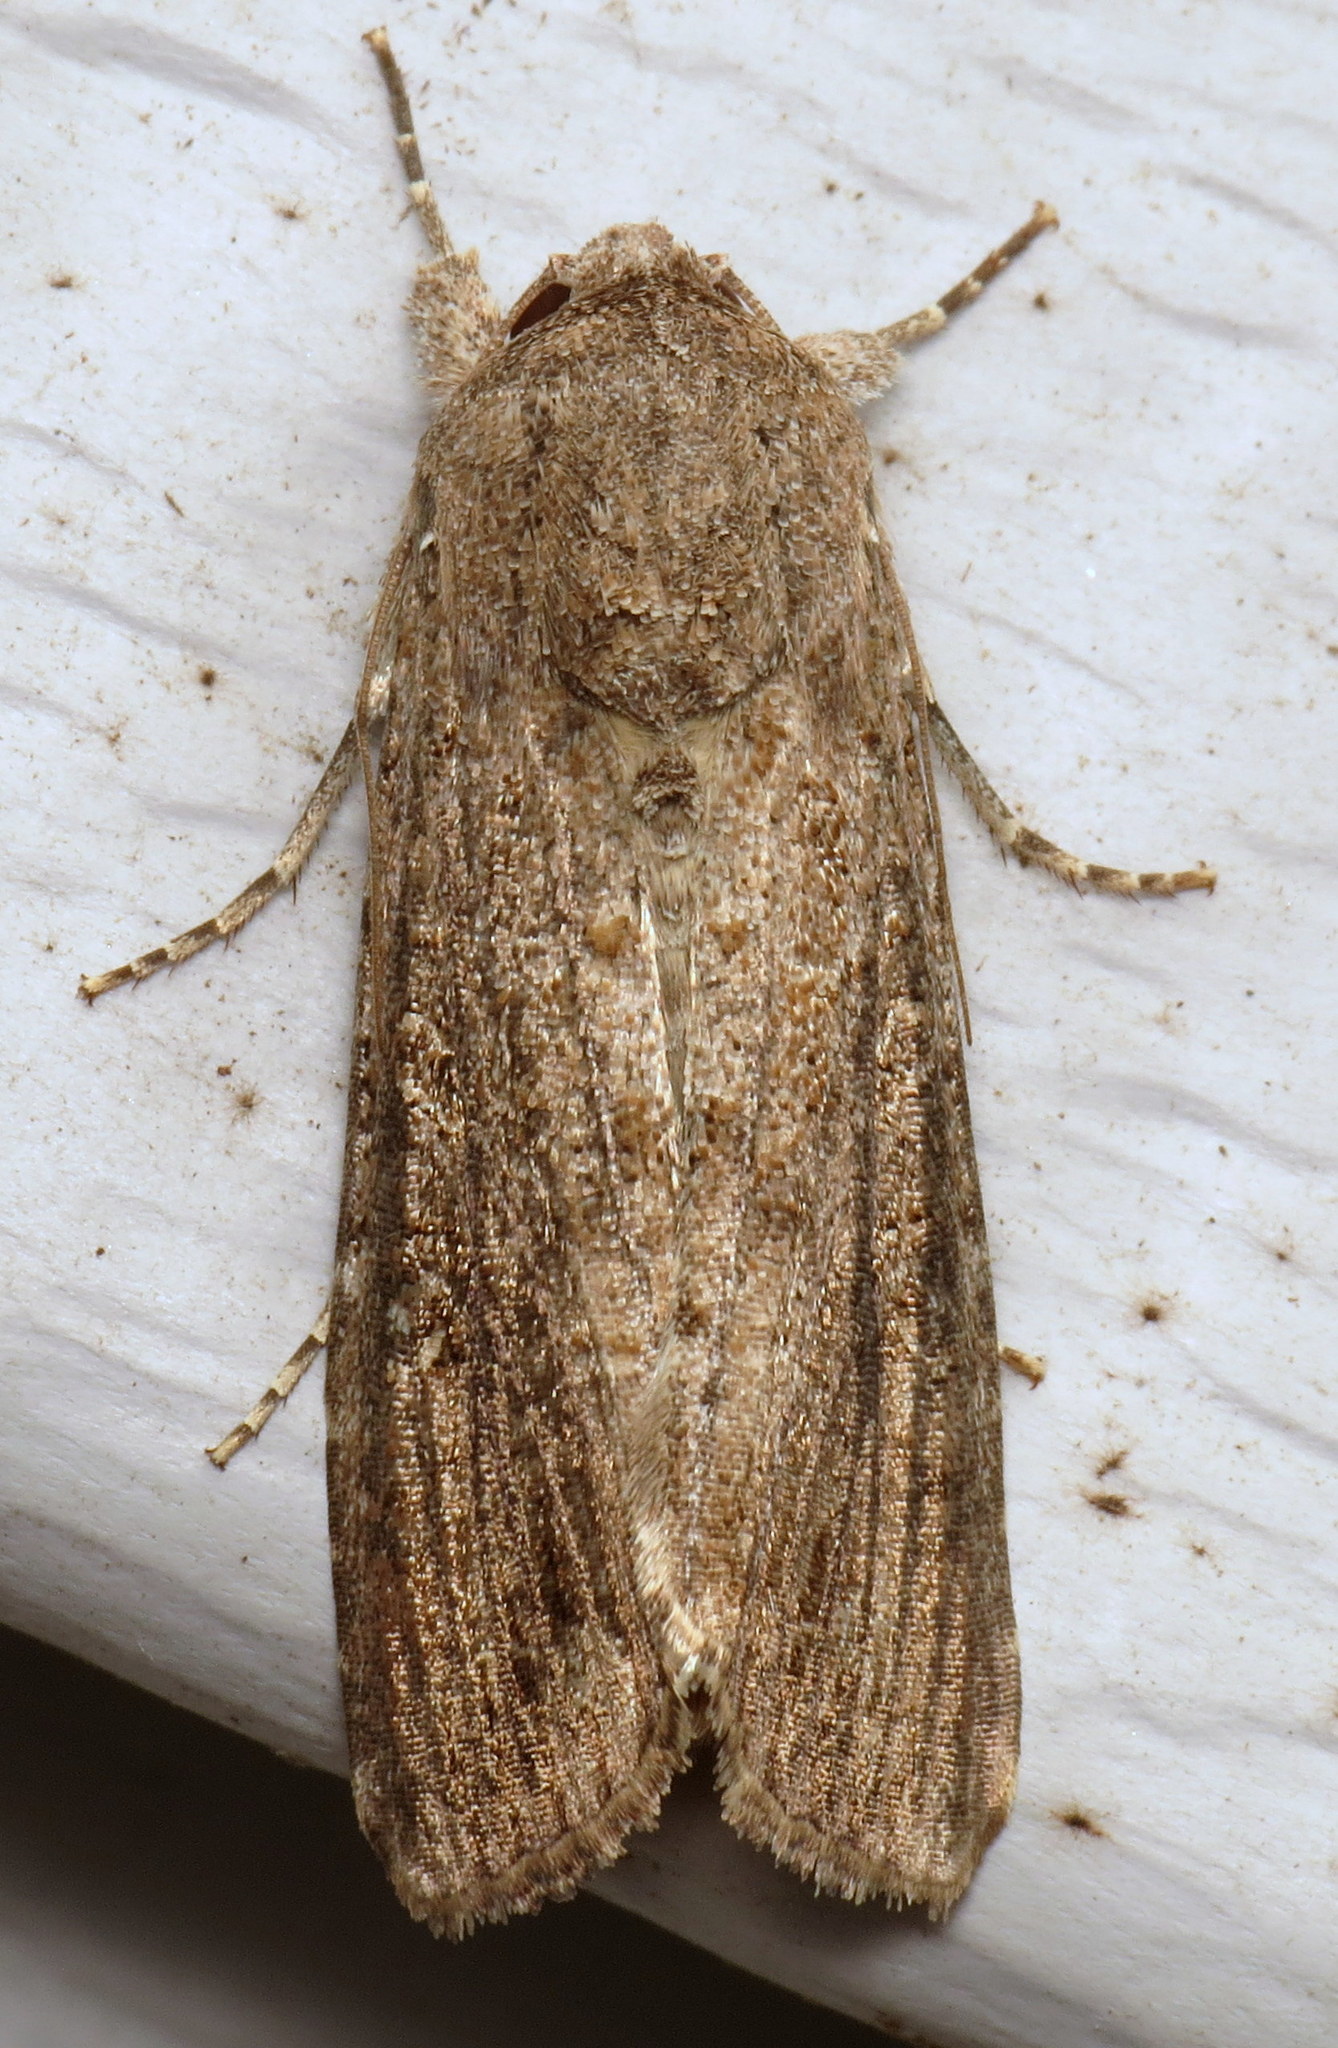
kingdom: Animalia
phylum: Arthropoda
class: Insecta
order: Lepidoptera
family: Noctuidae
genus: Spodoptera
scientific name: Spodoptera frugiperda
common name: Fall armyworm
